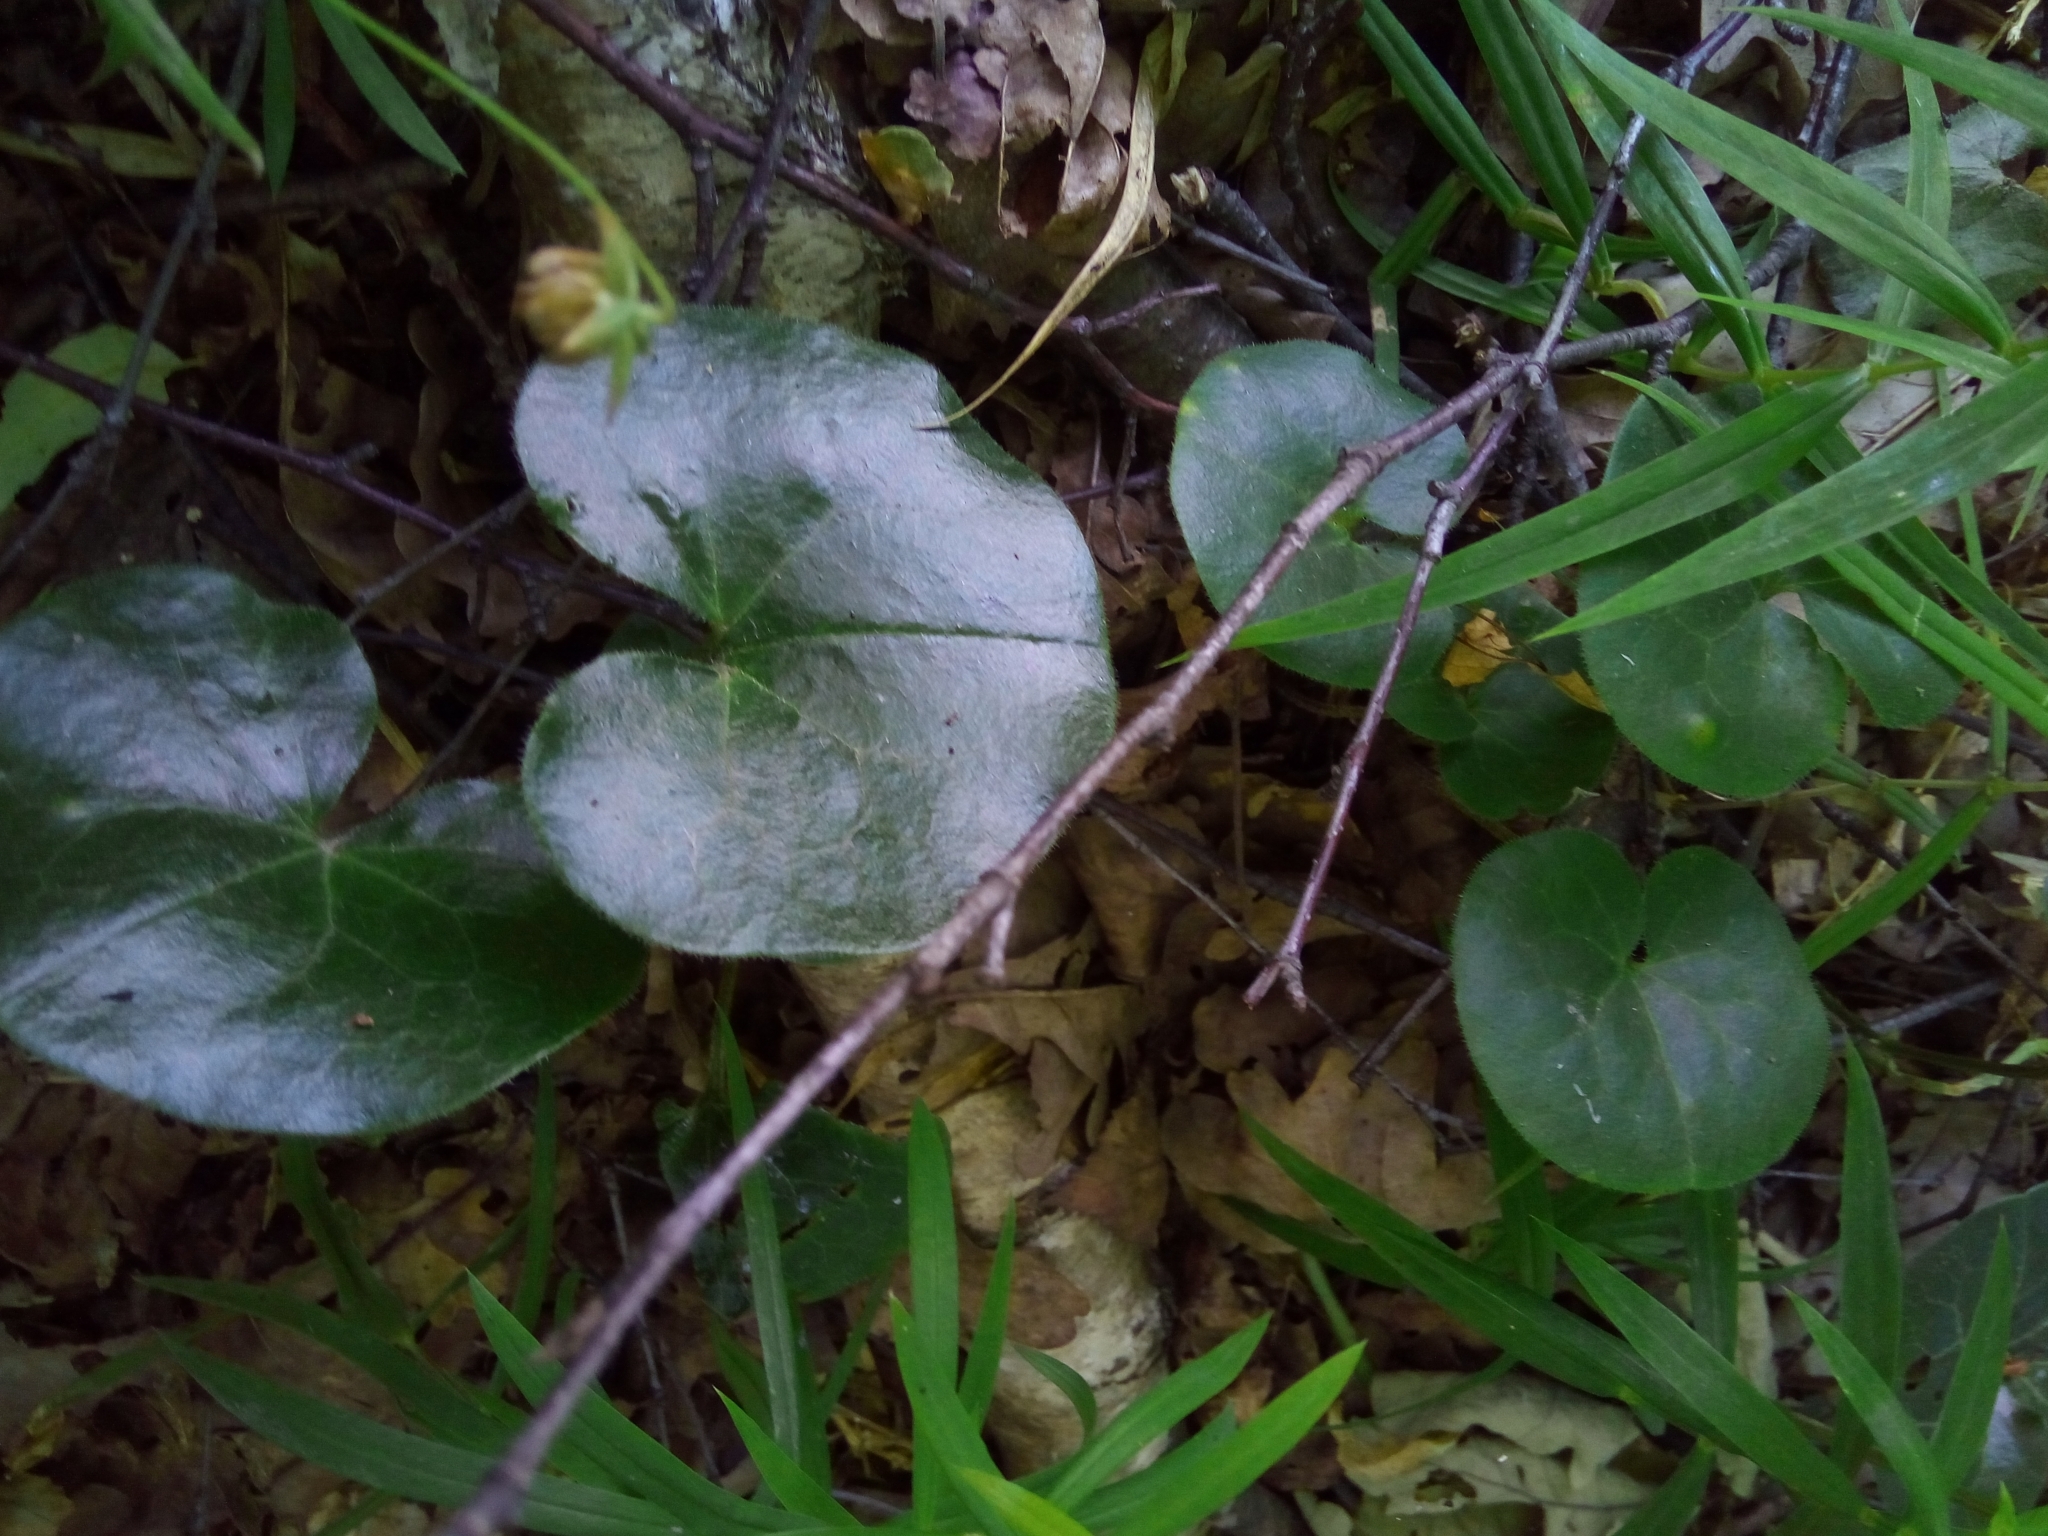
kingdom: Plantae
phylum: Tracheophyta
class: Magnoliopsida
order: Piperales
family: Aristolochiaceae
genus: Asarum
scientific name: Asarum europaeum
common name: Asarabacca
